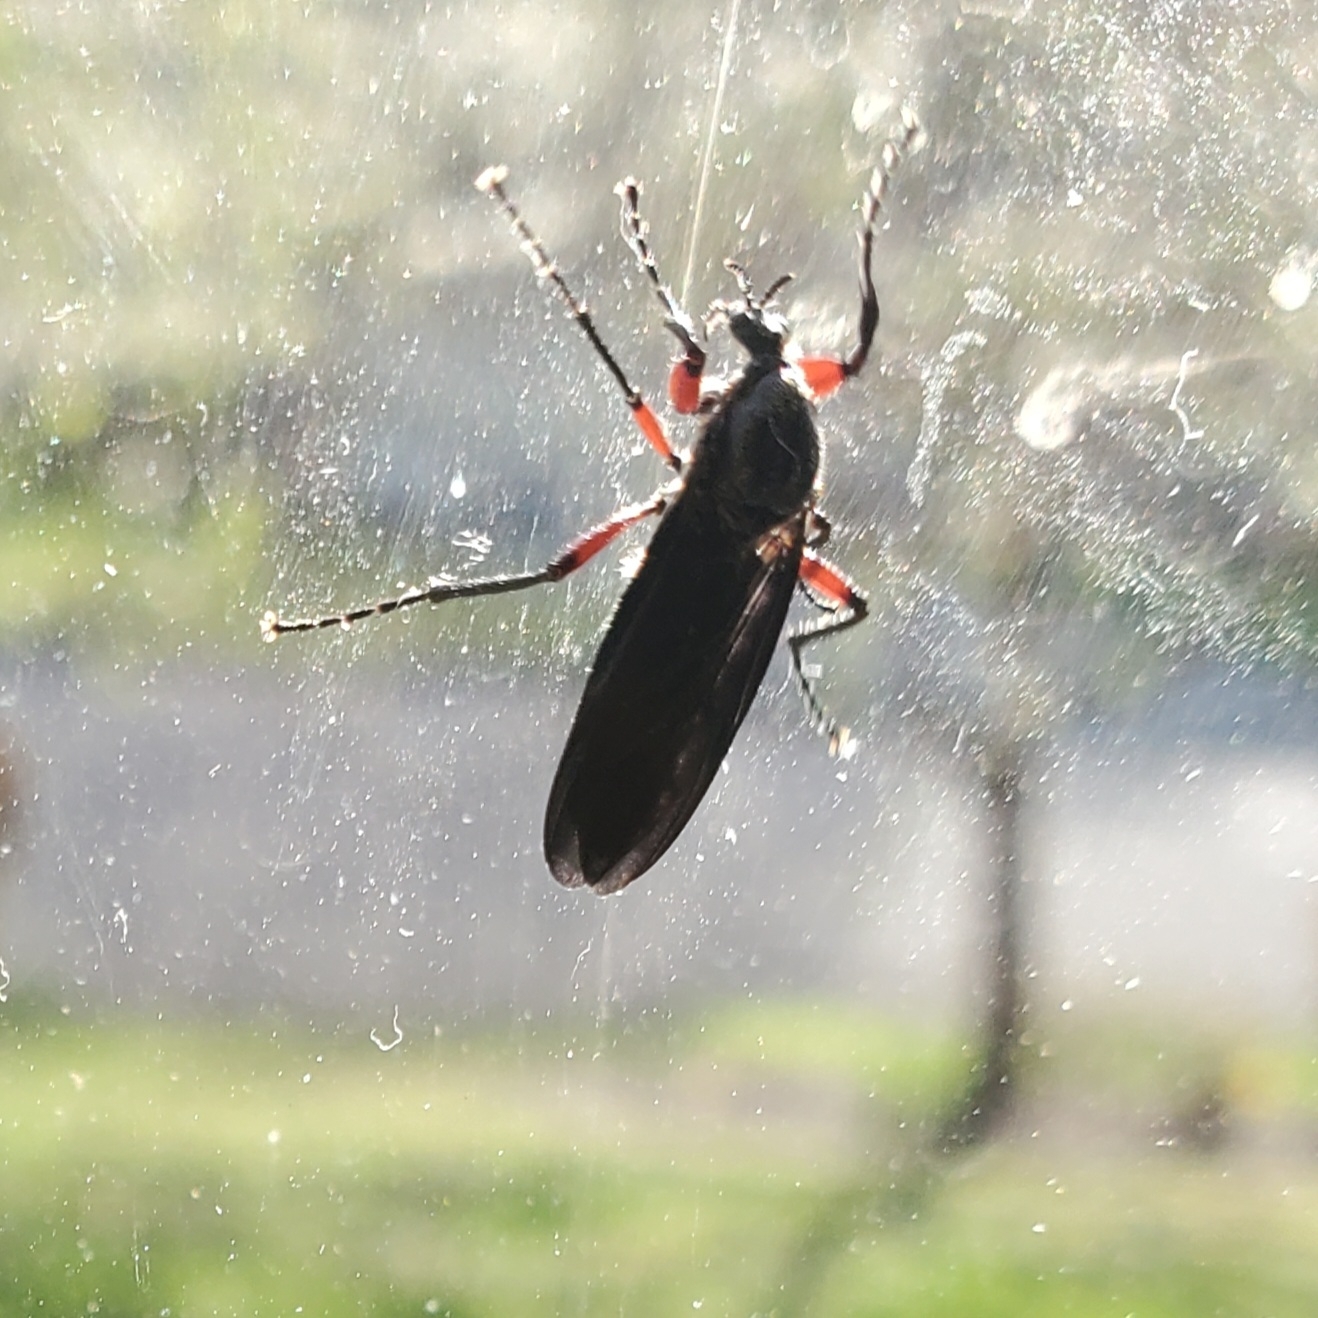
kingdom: Animalia
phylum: Arthropoda
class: Insecta
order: Diptera
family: Bibionidae
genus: Bibio
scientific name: Bibio femoratus
